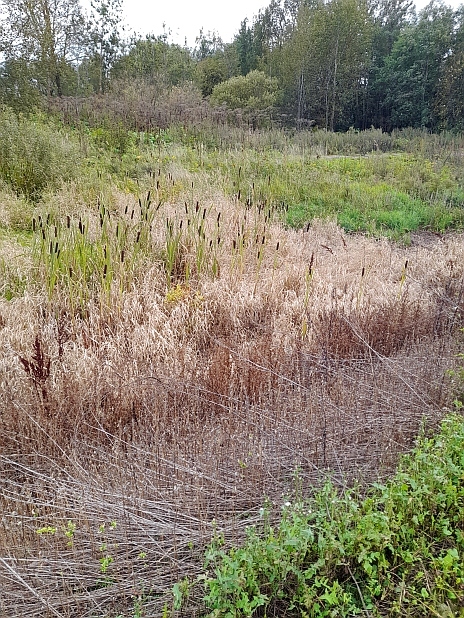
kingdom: Plantae
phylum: Tracheophyta
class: Liliopsida
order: Poales
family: Typhaceae
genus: Typha
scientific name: Typha latifolia
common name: Broadleaf cattail
